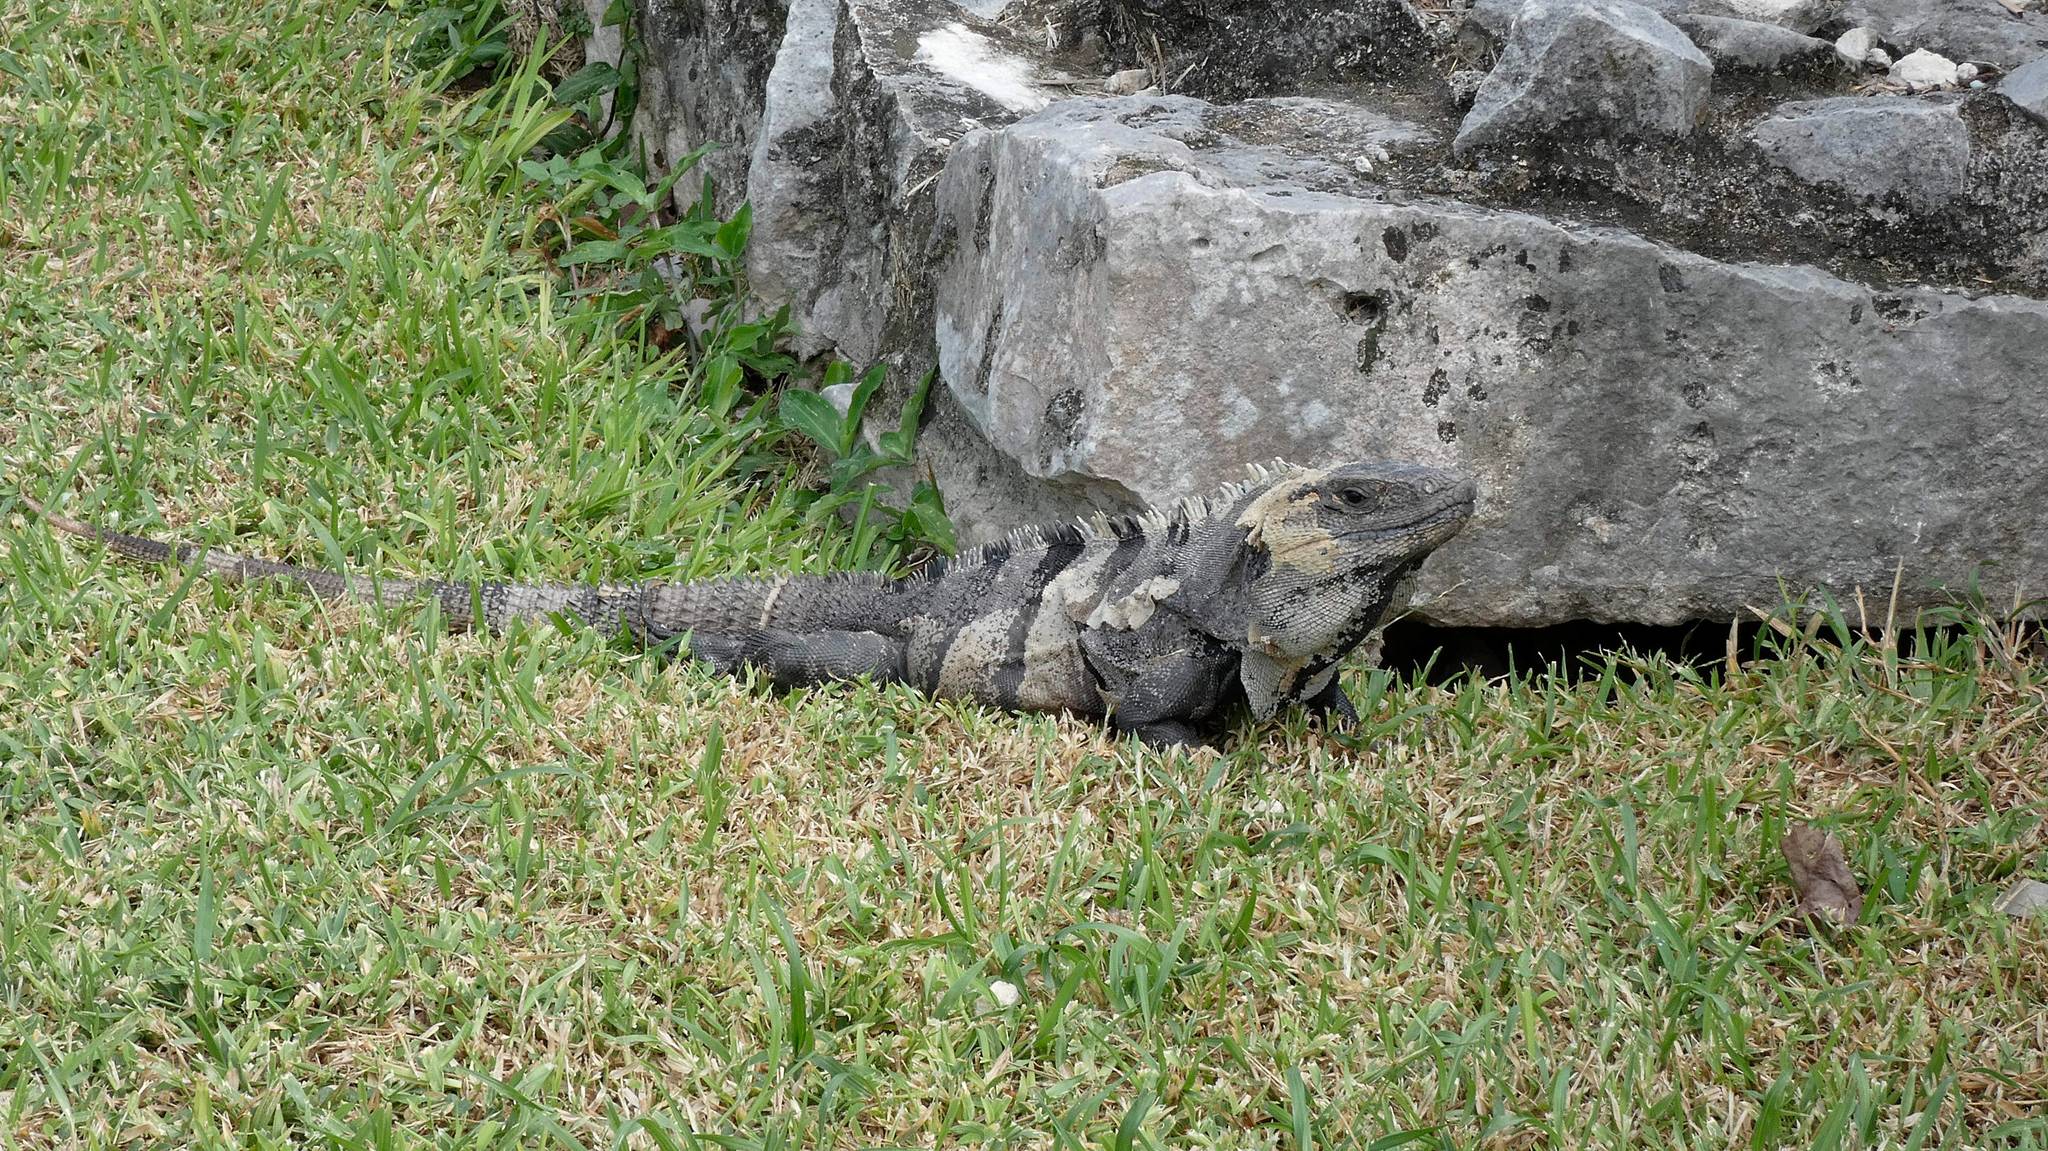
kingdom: Animalia
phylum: Chordata
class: Squamata
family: Iguanidae
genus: Ctenosaura
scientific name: Ctenosaura similis
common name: Black spiny-tailed iguana
